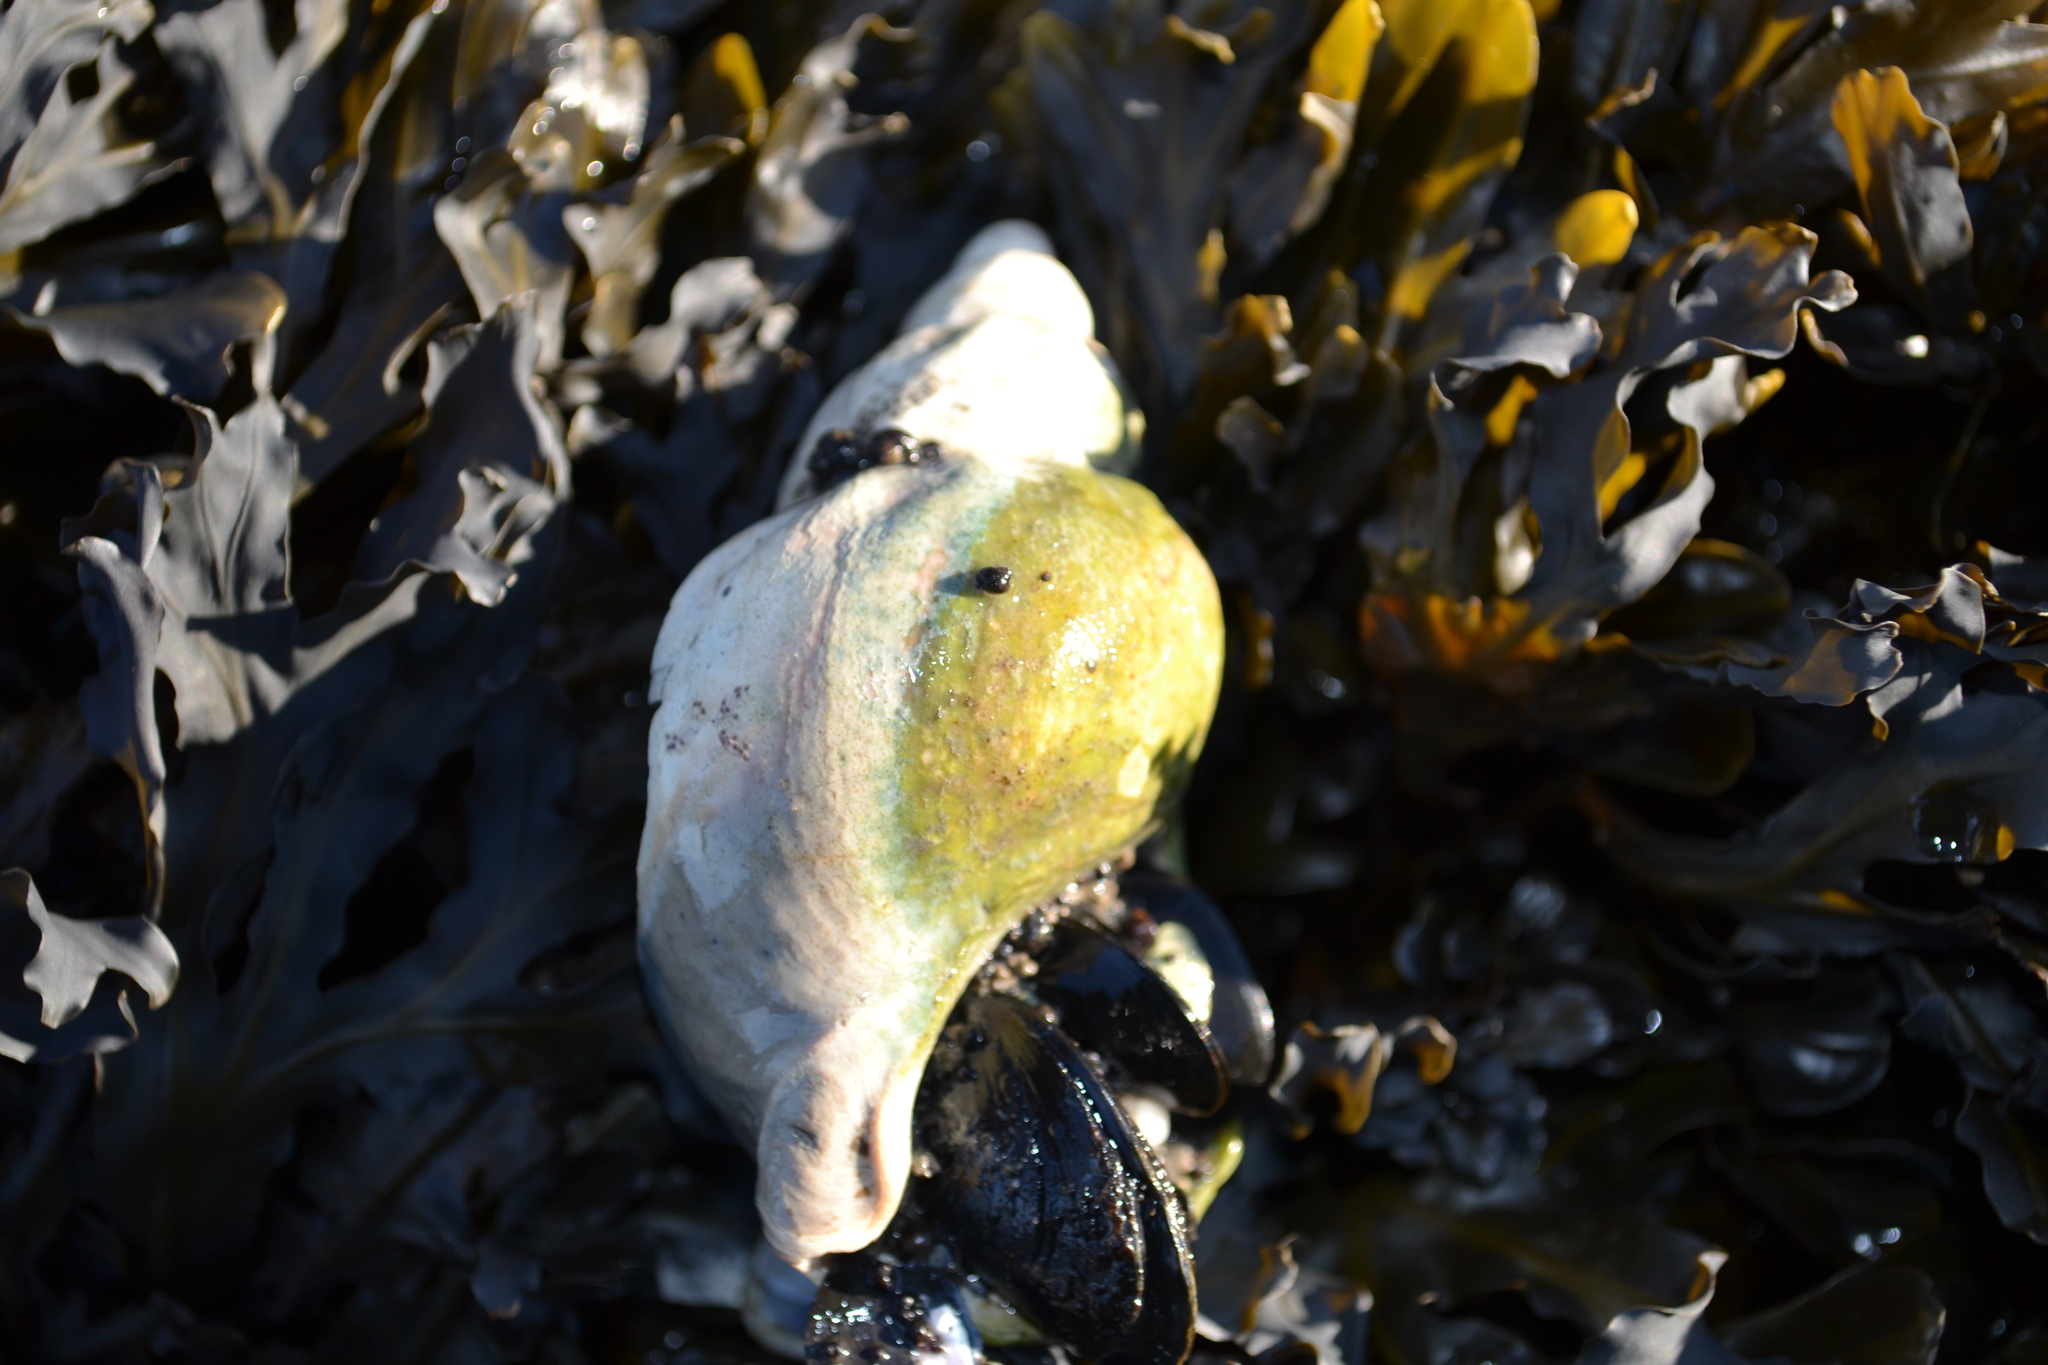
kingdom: Animalia
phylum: Mollusca
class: Gastropoda
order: Neogastropoda
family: Buccinidae
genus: Buccinum
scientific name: Buccinum undatum
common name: Common whelk
